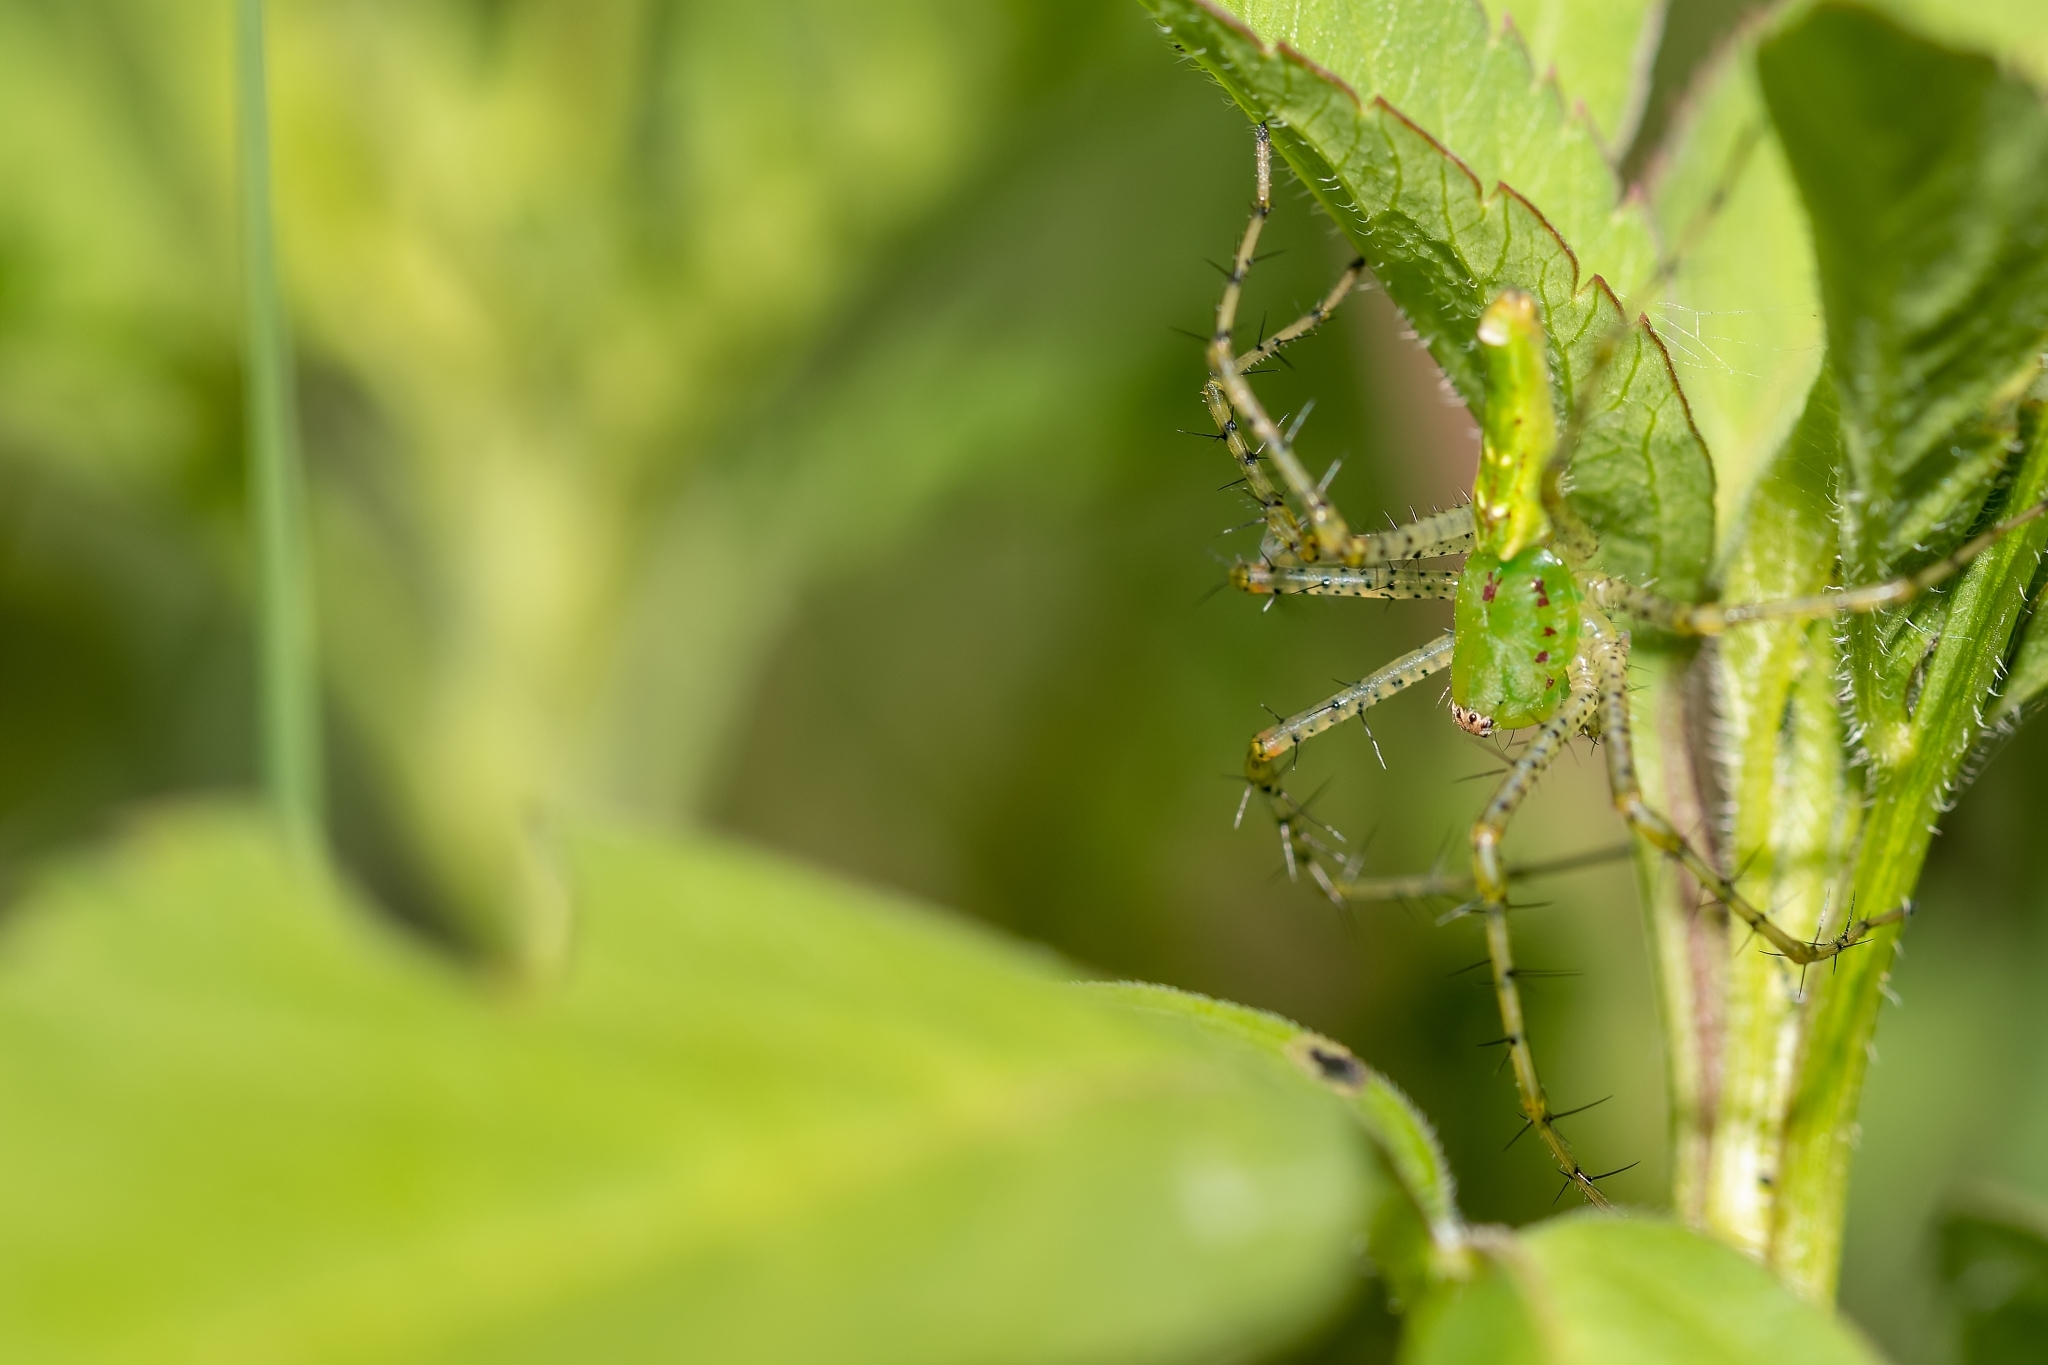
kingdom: Animalia
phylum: Arthropoda
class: Arachnida
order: Araneae
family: Oxyopidae
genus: Peucetia
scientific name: Peucetia viridans
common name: Lynx spiders
